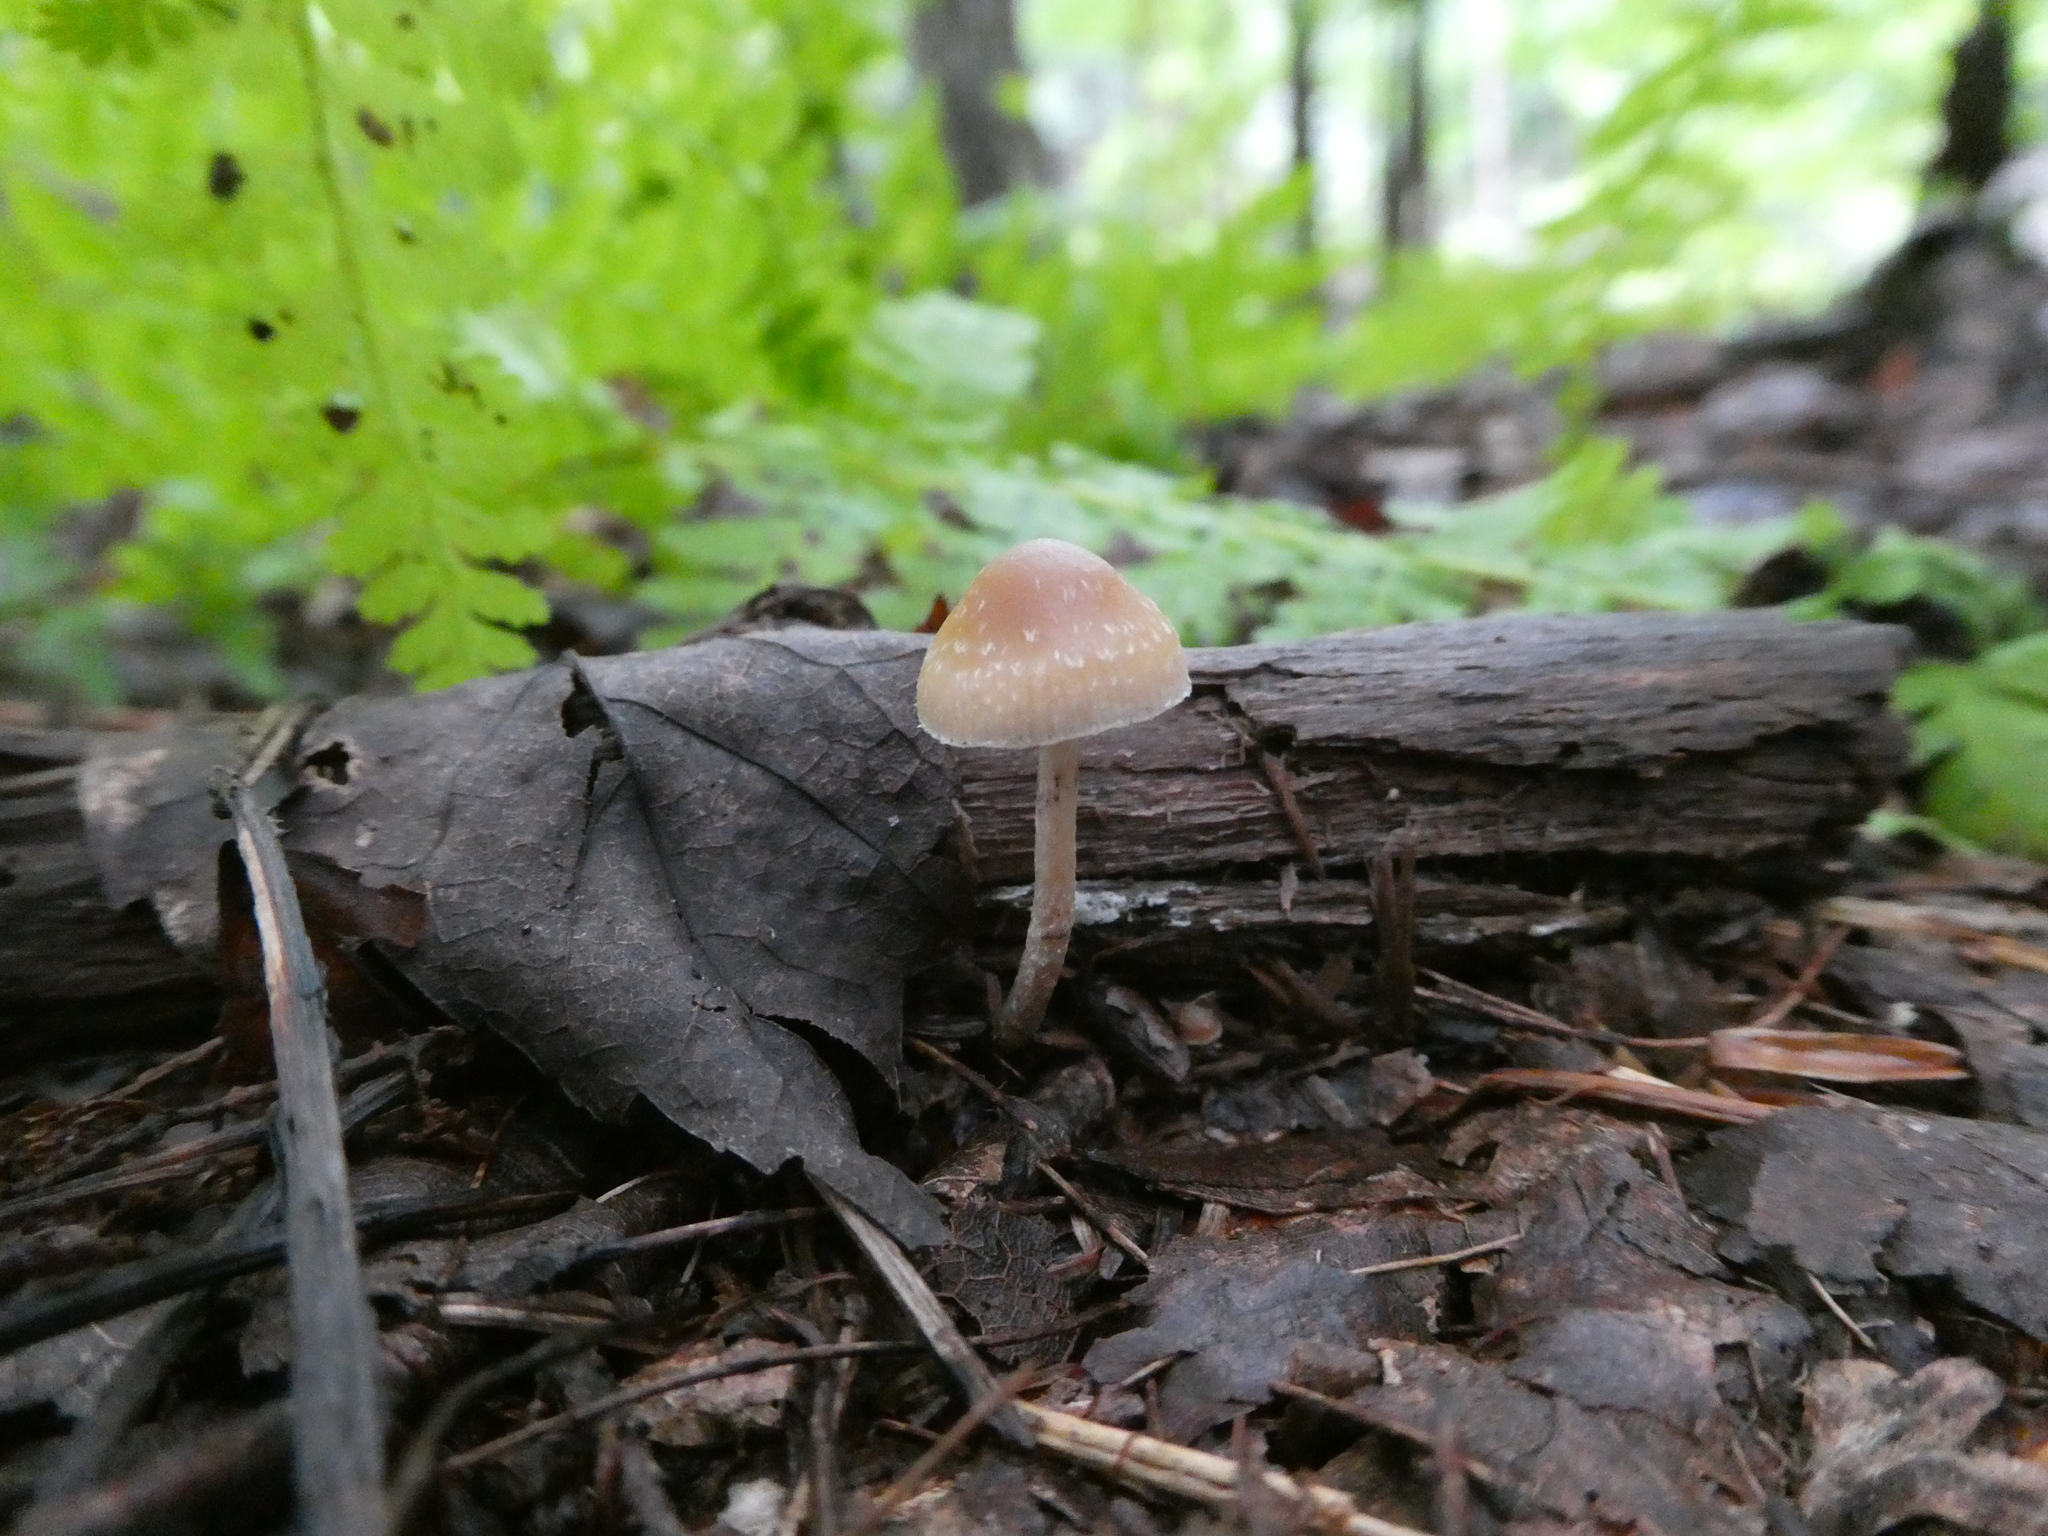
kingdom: Fungi
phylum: Basidiomycota
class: Agaricomycetes
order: Agaricales
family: Hymenogastraceae
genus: Psilocybe
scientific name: Psilocybe caerulipes
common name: Blue-foot
